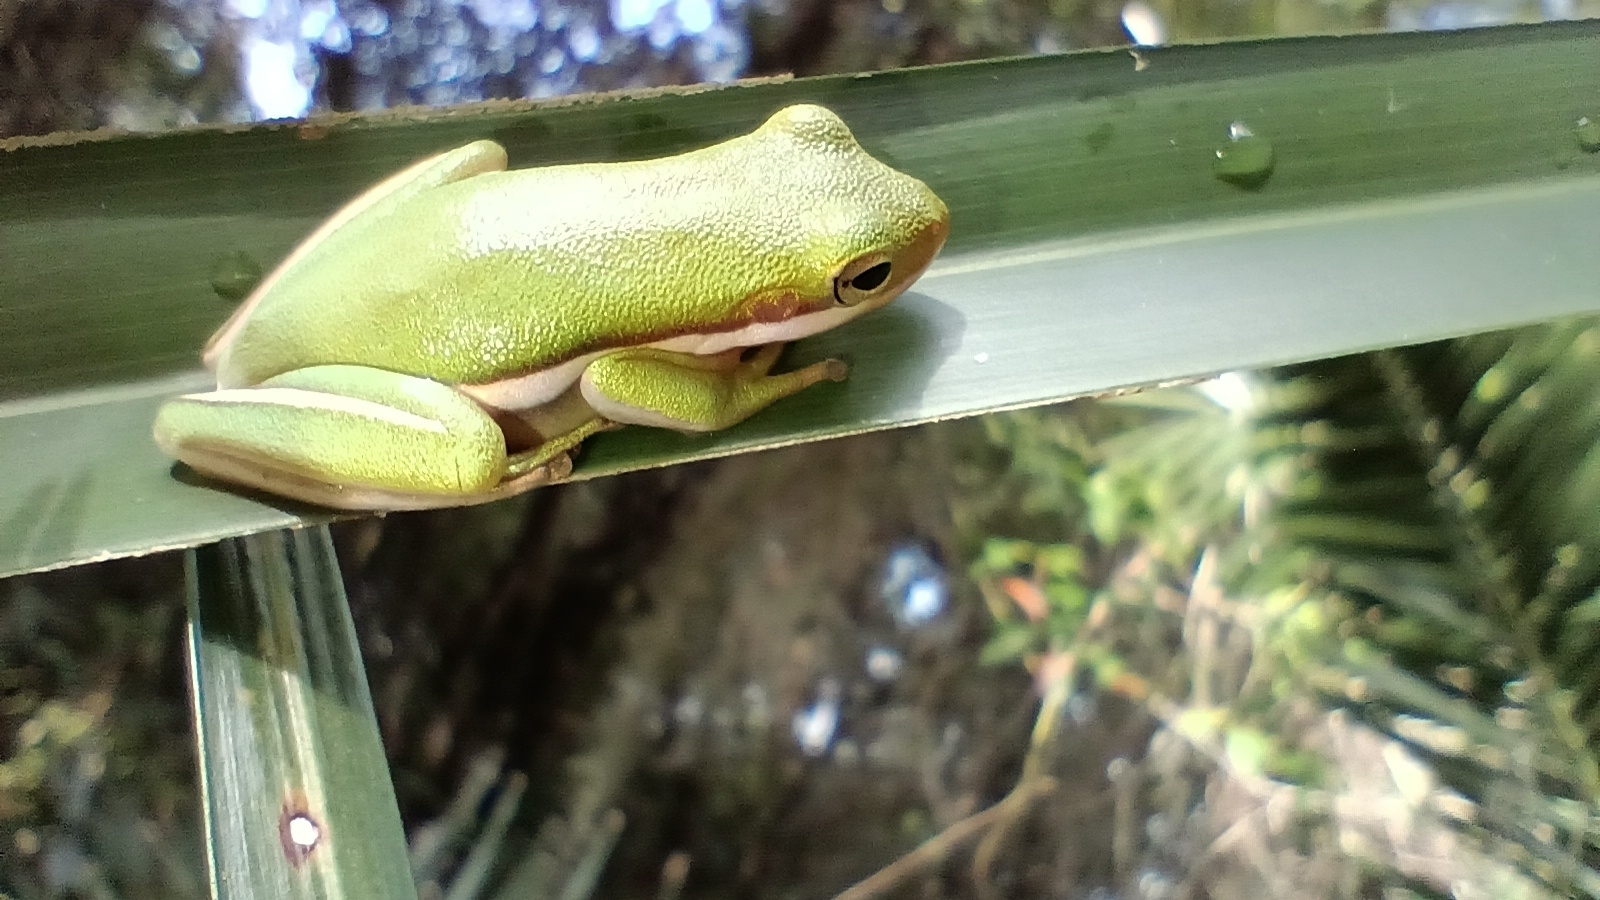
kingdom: Animalia
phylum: Chordata
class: Amphibia
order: Anura
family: Hylidae
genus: Dryophytes
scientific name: Dryophytes cinereus
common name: Green treefrog
